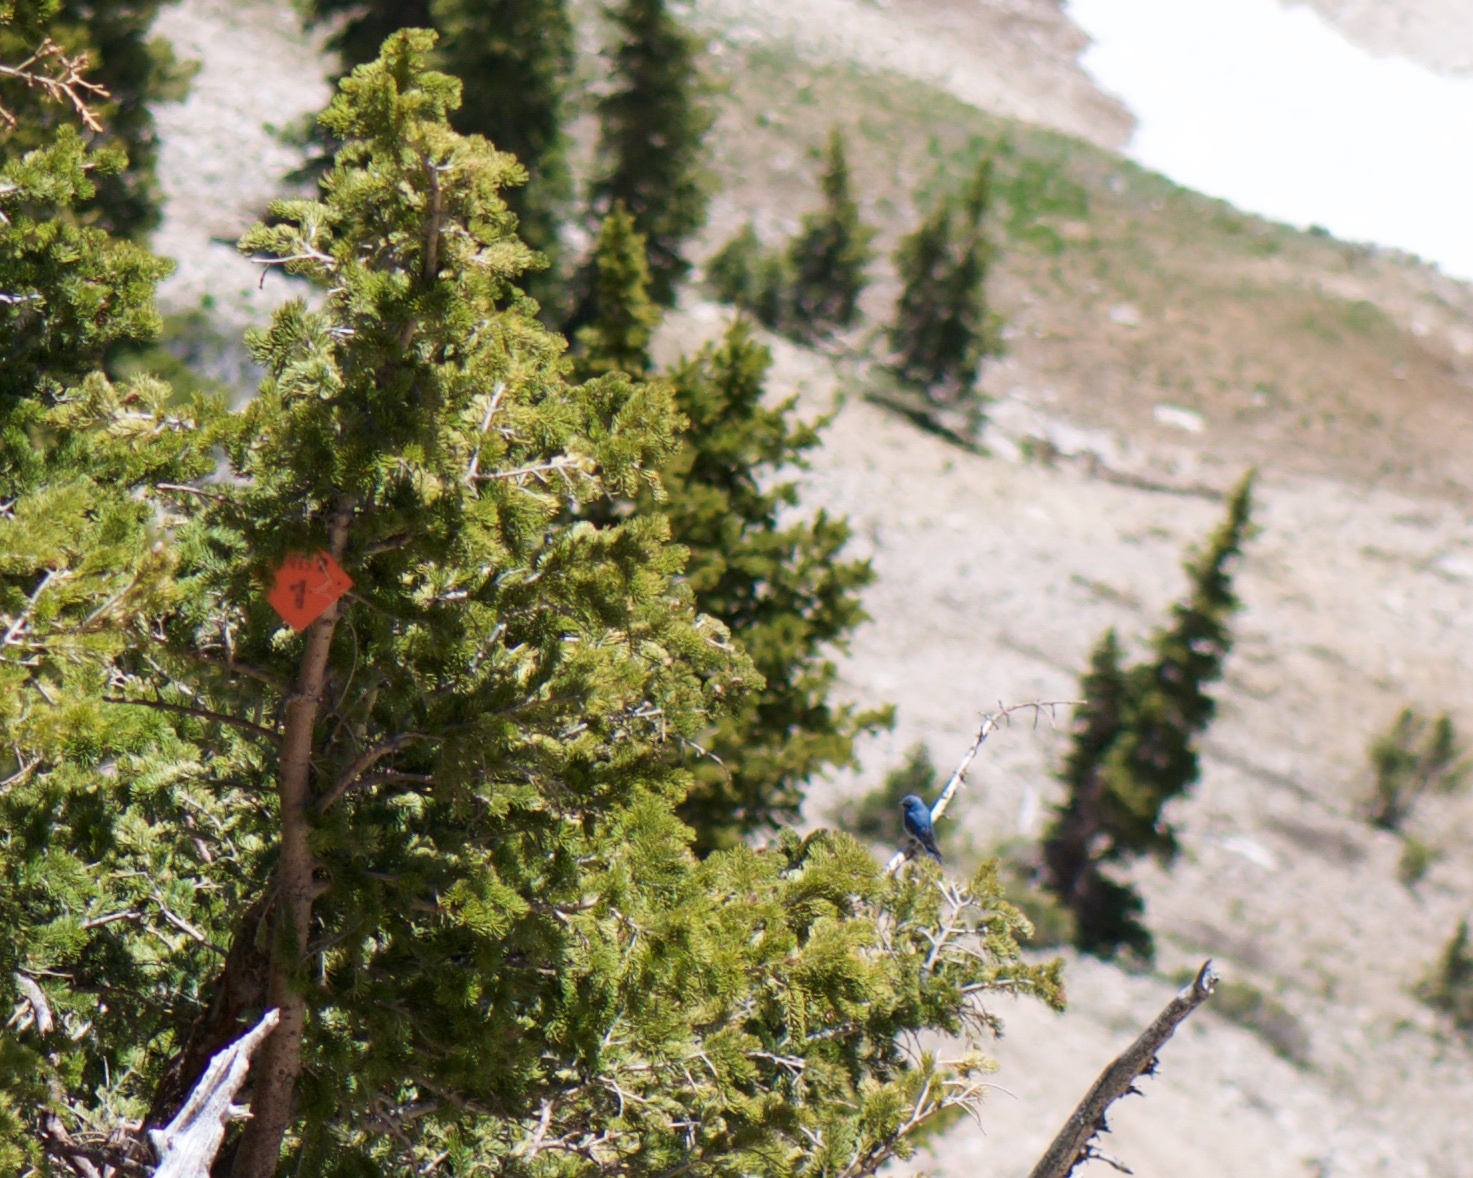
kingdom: Animalia
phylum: Chordata
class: Aves
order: Passeriformes
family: Turdidae
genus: Sialia
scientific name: Sialia currucoides
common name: Mountain bluebird
